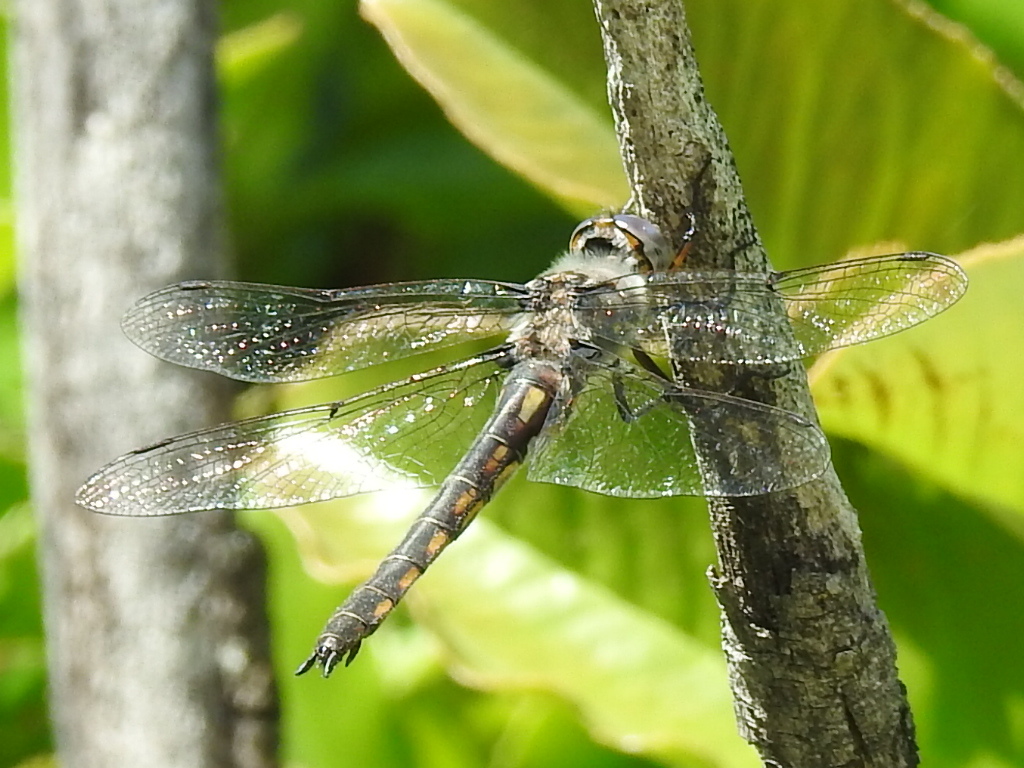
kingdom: Animalia
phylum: Arthropoda
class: Insecta
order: Odonata
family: Corduliidae
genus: Epitheca
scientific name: Epitheca petechialis
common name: Dot-winged baskettail
